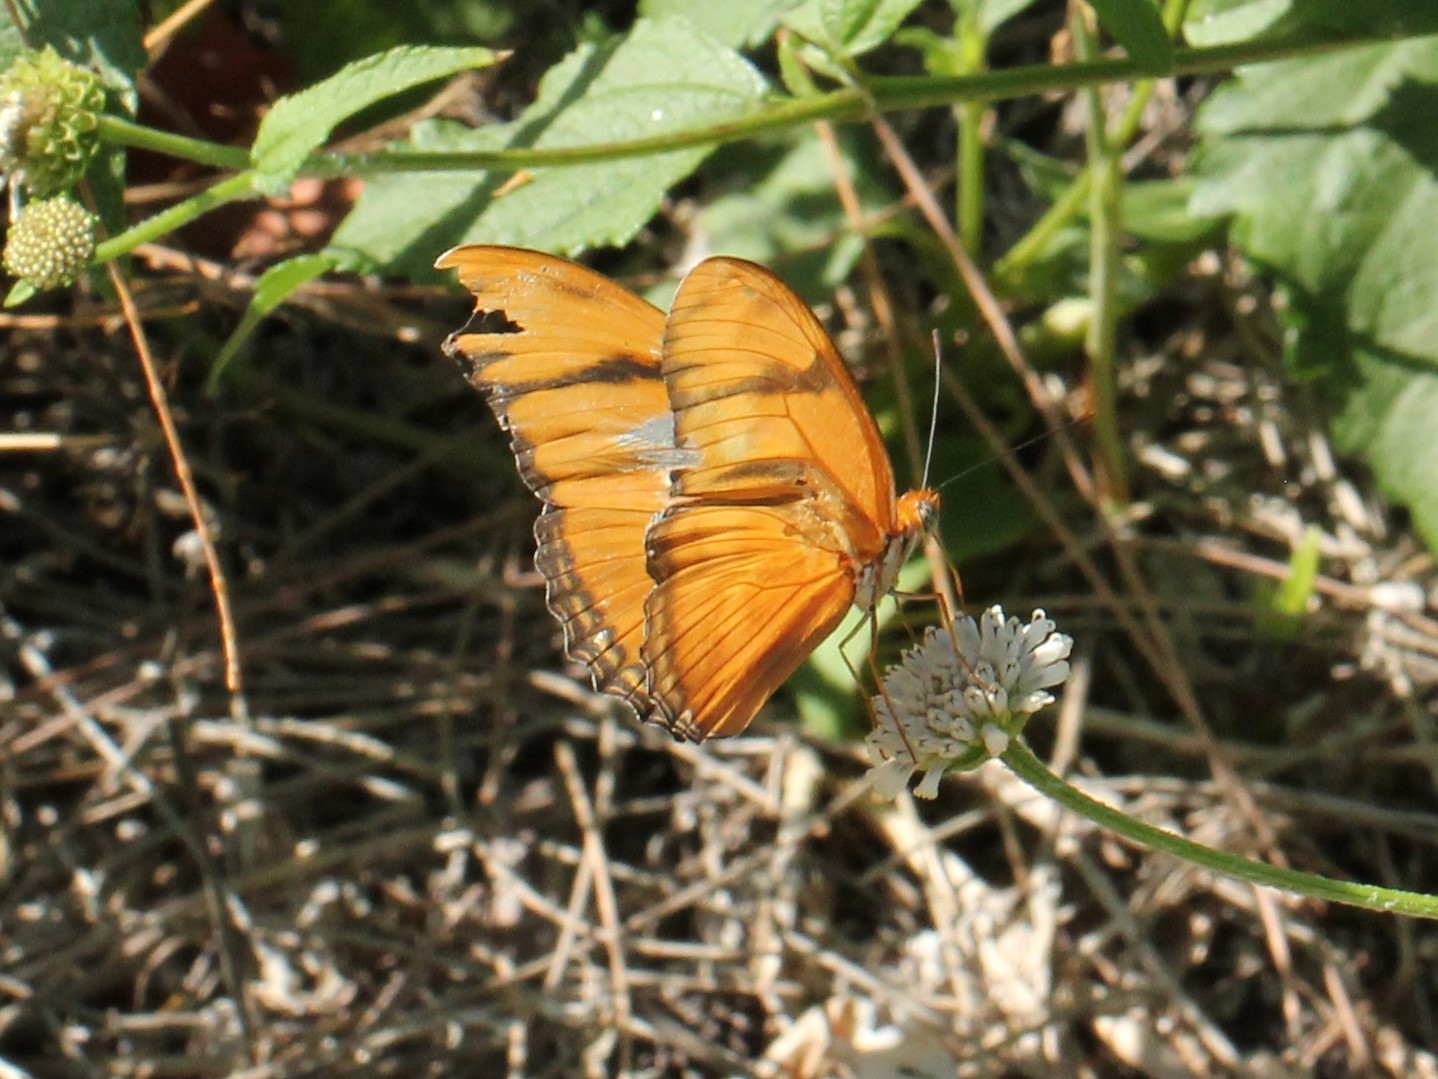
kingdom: Animalia
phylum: Arthropoda
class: Insecta
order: Lepidoptera
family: Nymphalidae
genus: Dryas
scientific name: Dryas iulia
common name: Flambeau
